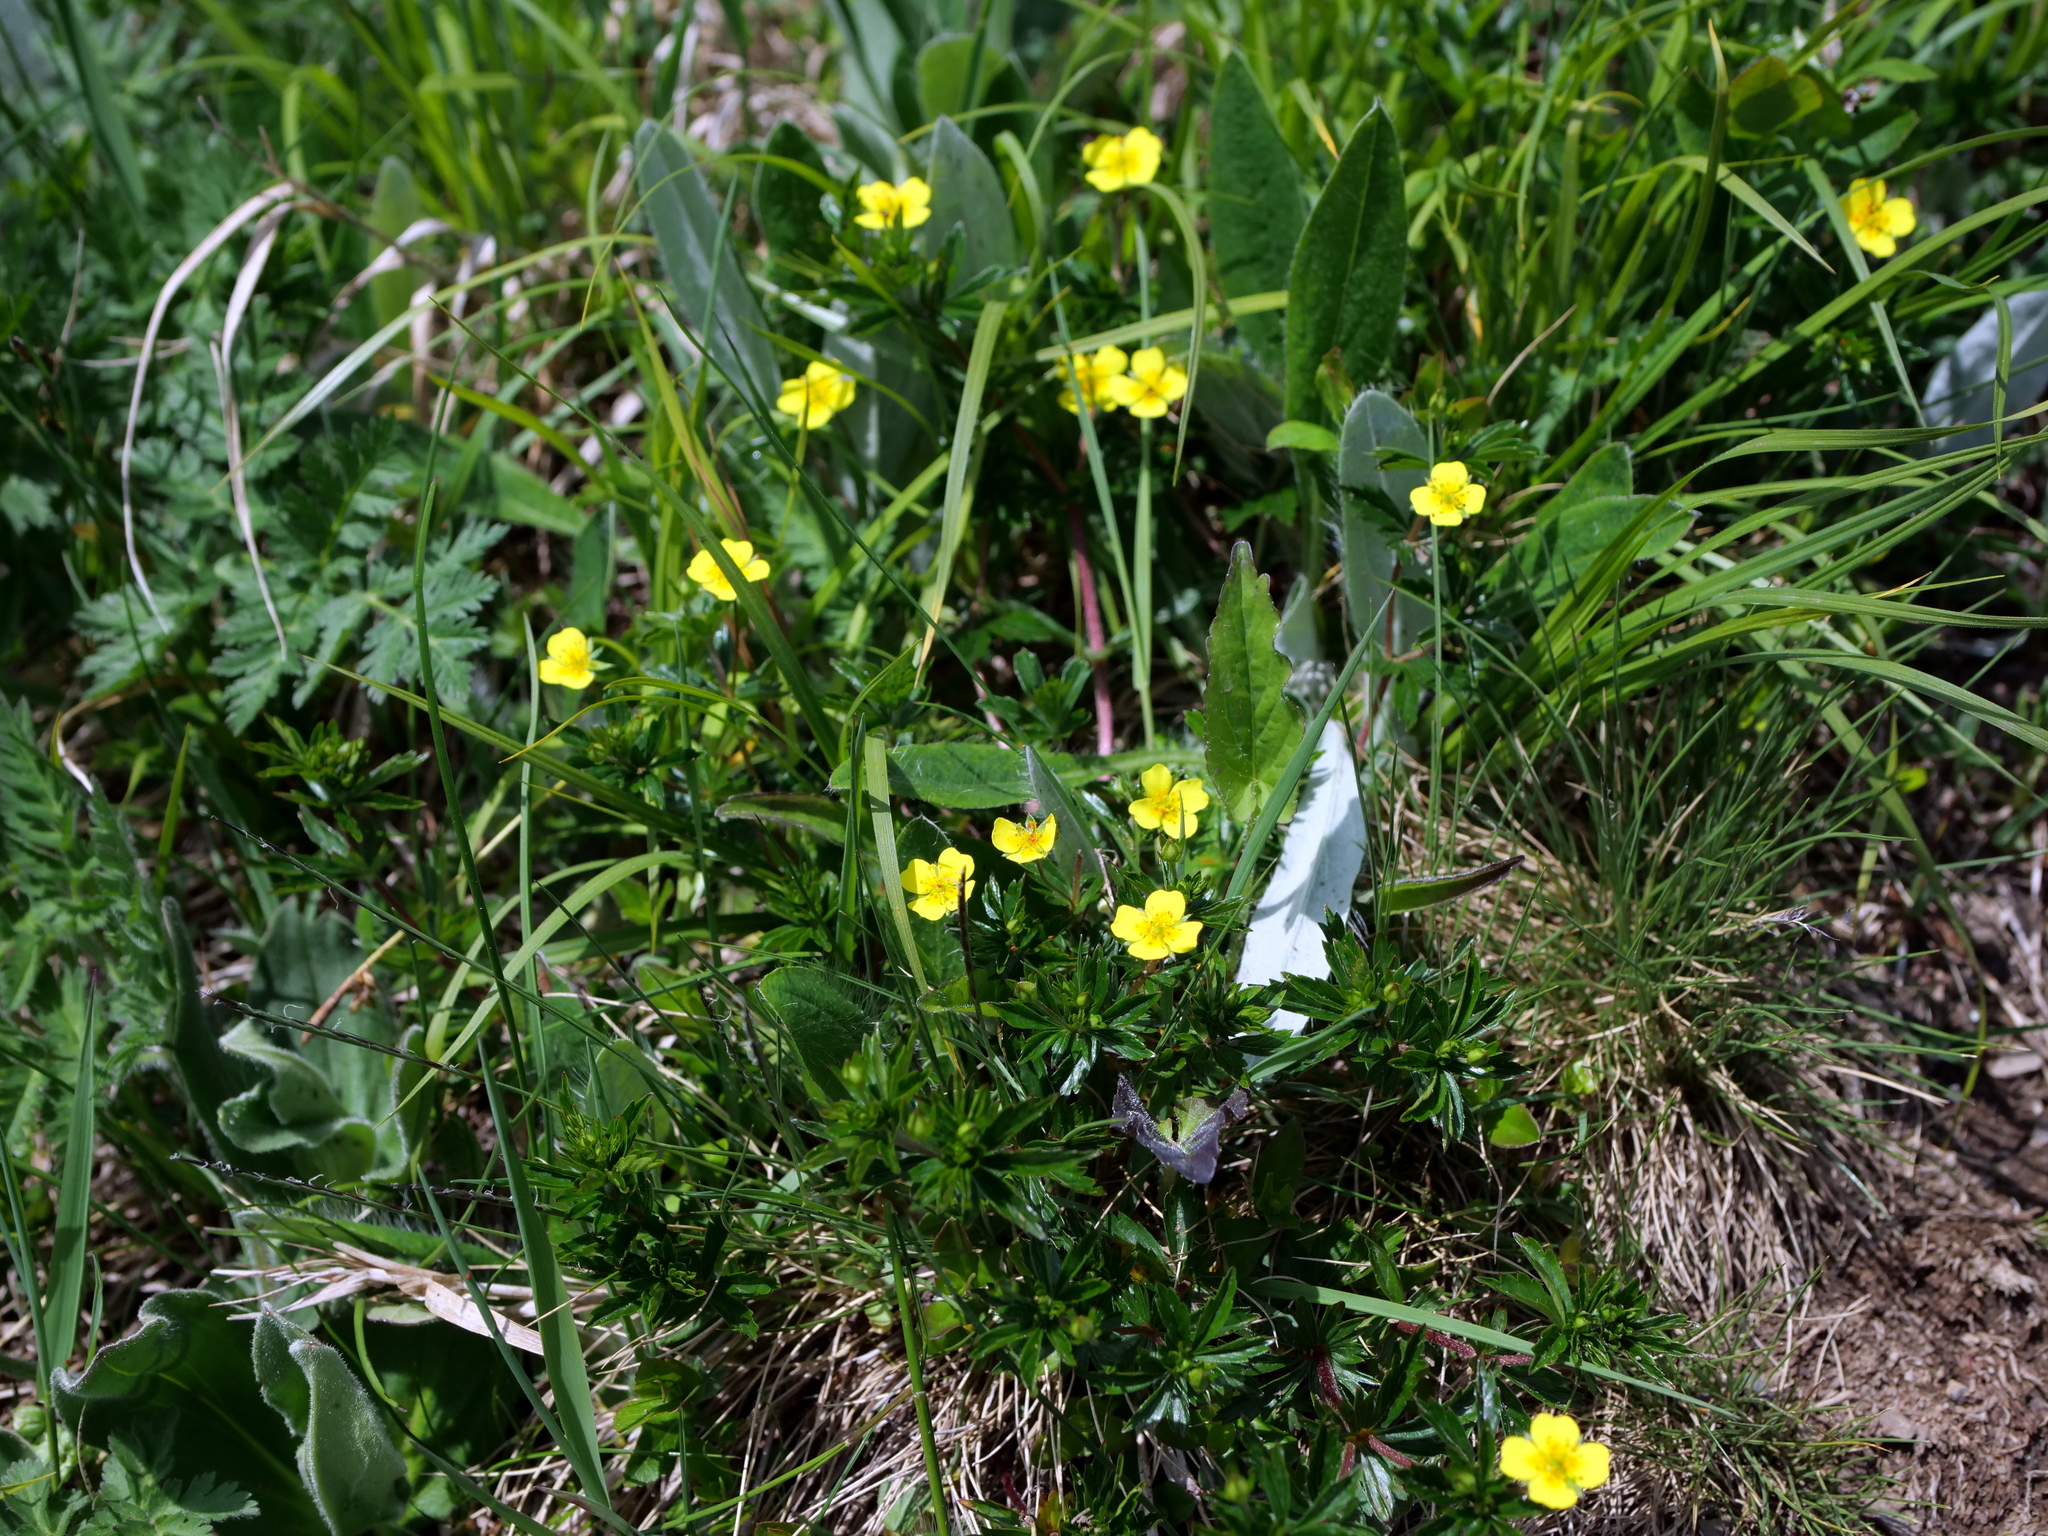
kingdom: Plantae
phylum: Tracheophyta
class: Magnoliopsida
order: Rosales
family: Rosaceae
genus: Potentilla
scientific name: Potentilla erecta
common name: Tormentil
